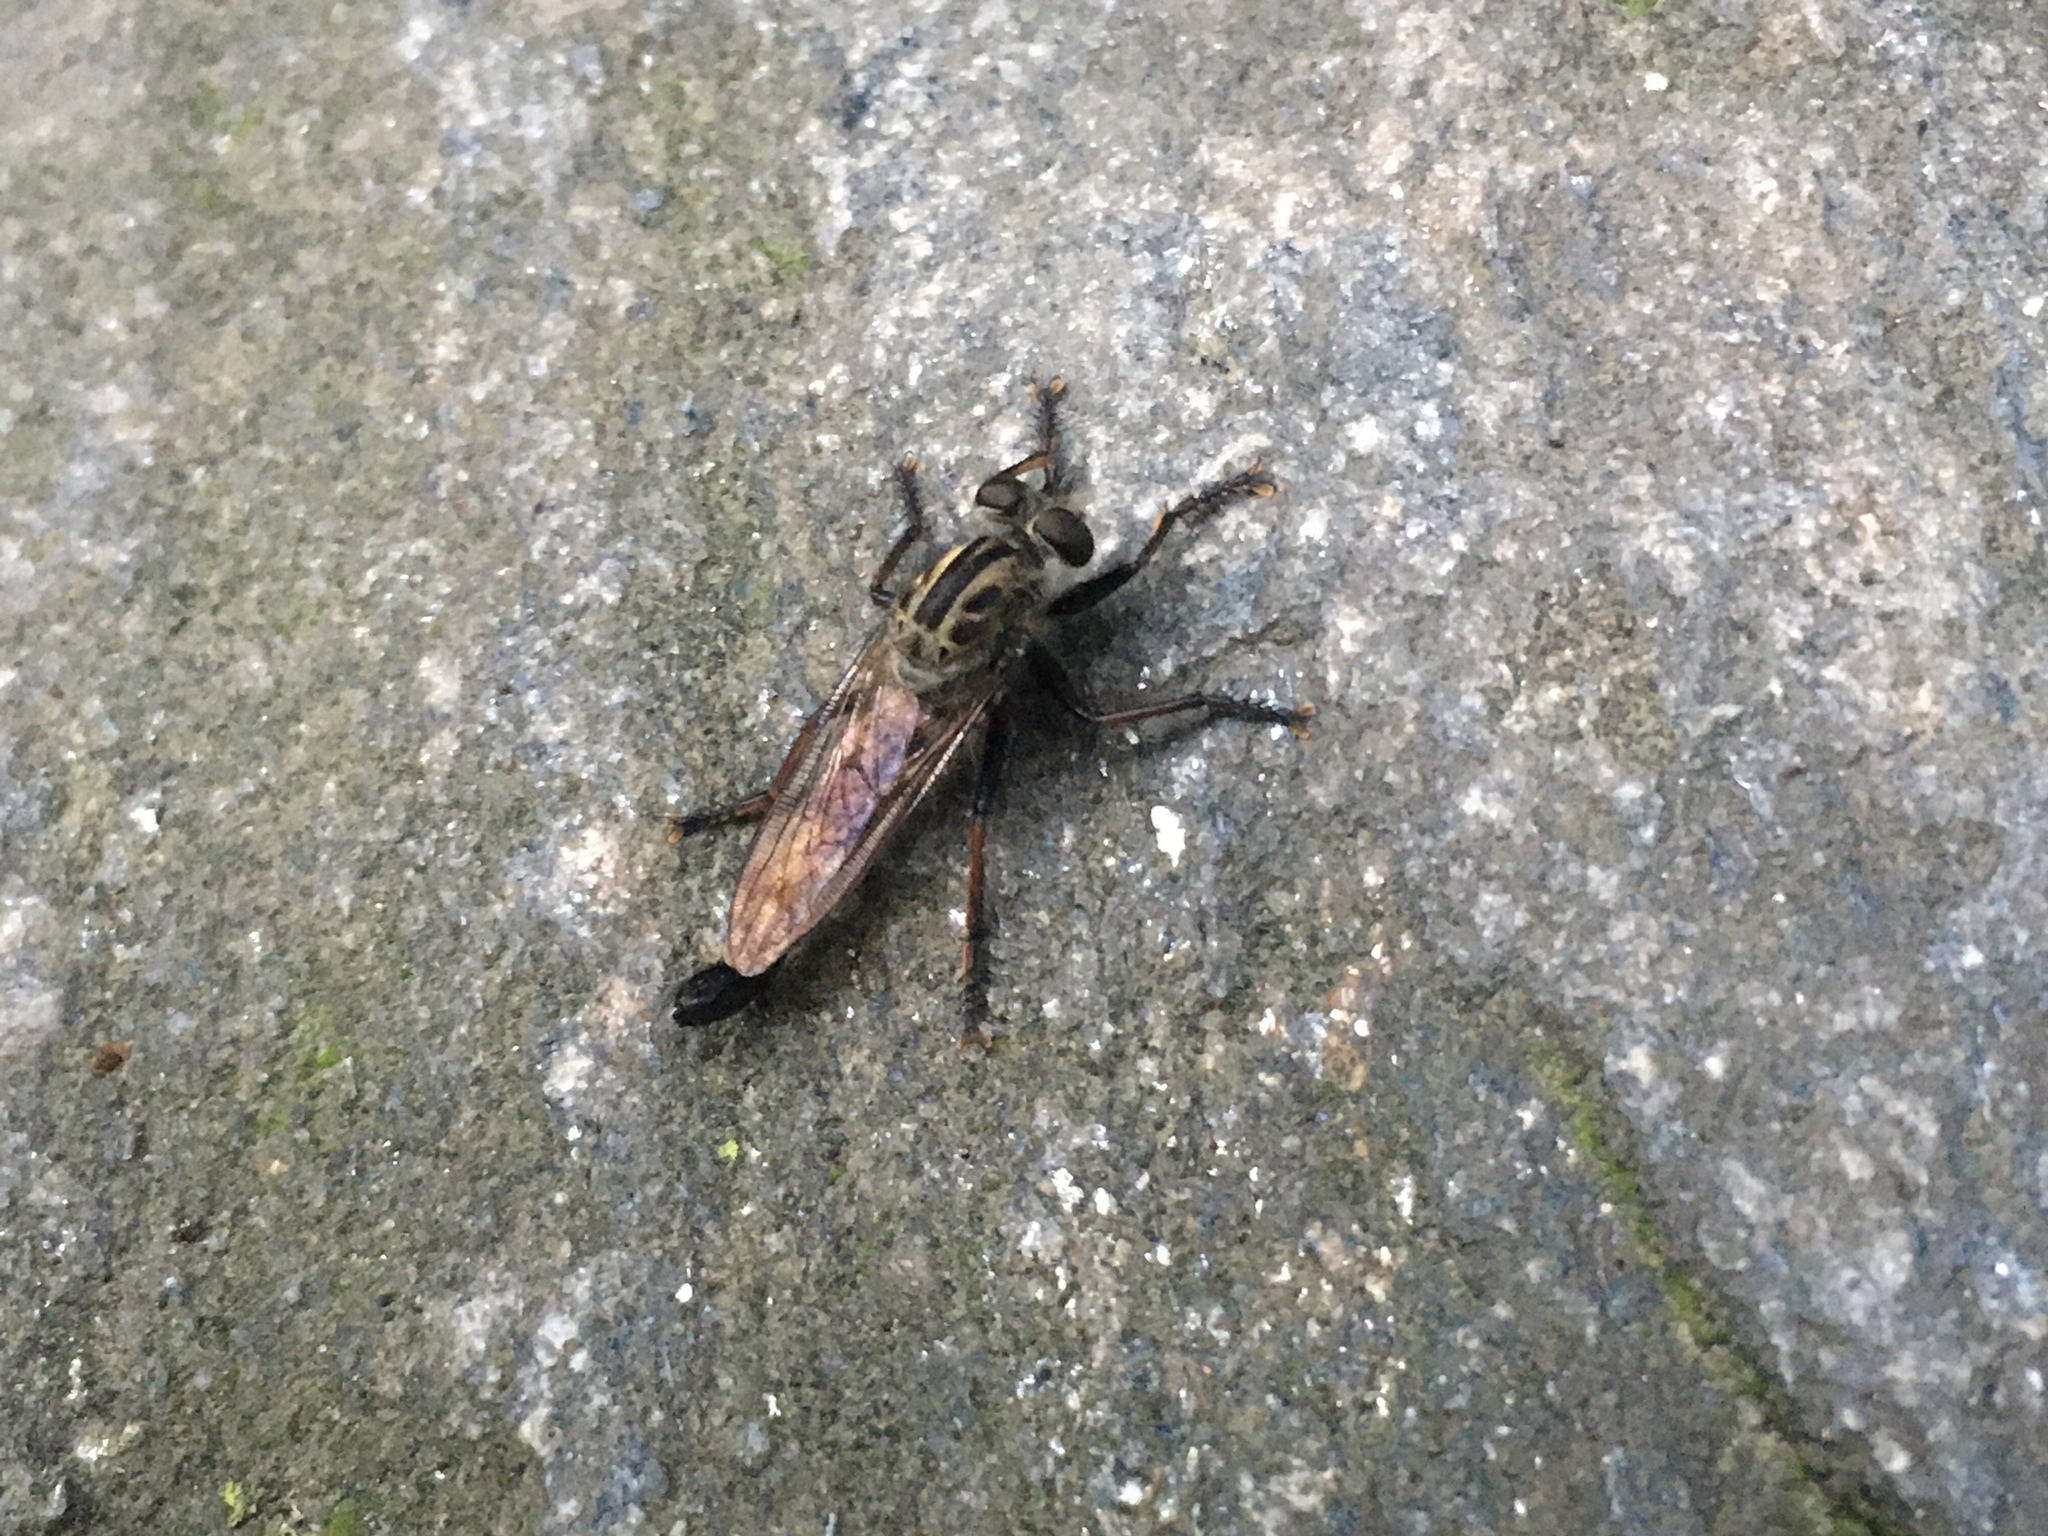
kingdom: Animalia
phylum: Arthropoda
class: Insecta
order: Diptera
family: Asilidae
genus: Efferia
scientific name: Efferia aestuans
